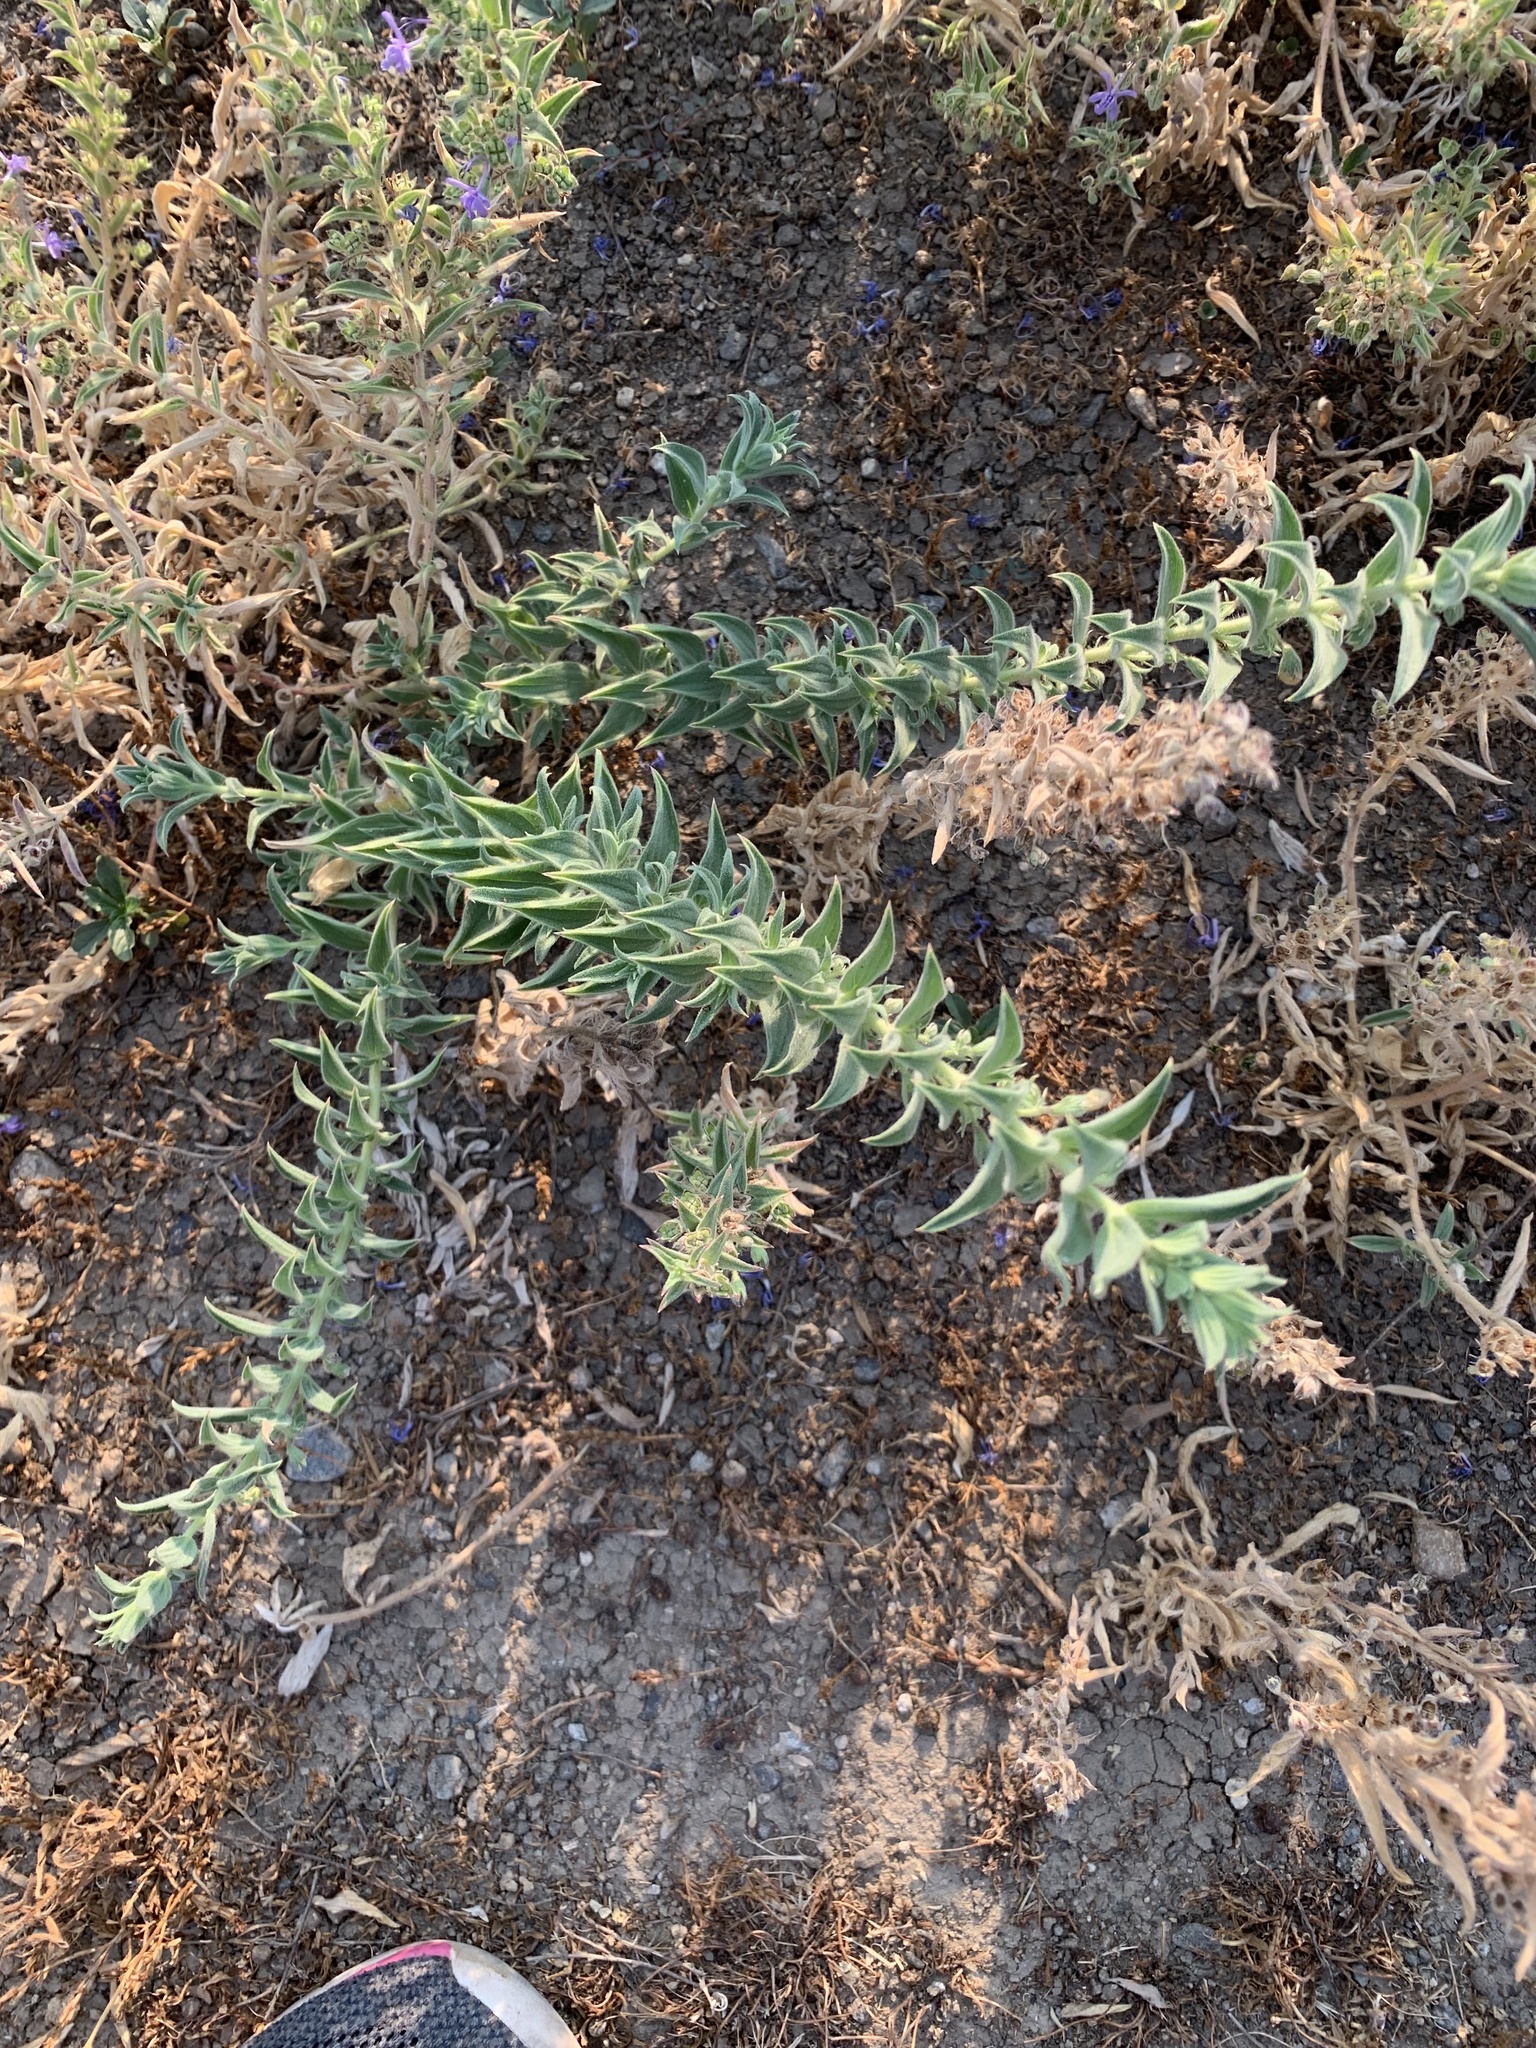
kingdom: Plantae
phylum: Tracheophyta
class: Magnoliopsida
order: Lamiales
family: Lamiaceae
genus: Trichostema
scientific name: Trichostema lanceolatum
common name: Vinegar-weed
